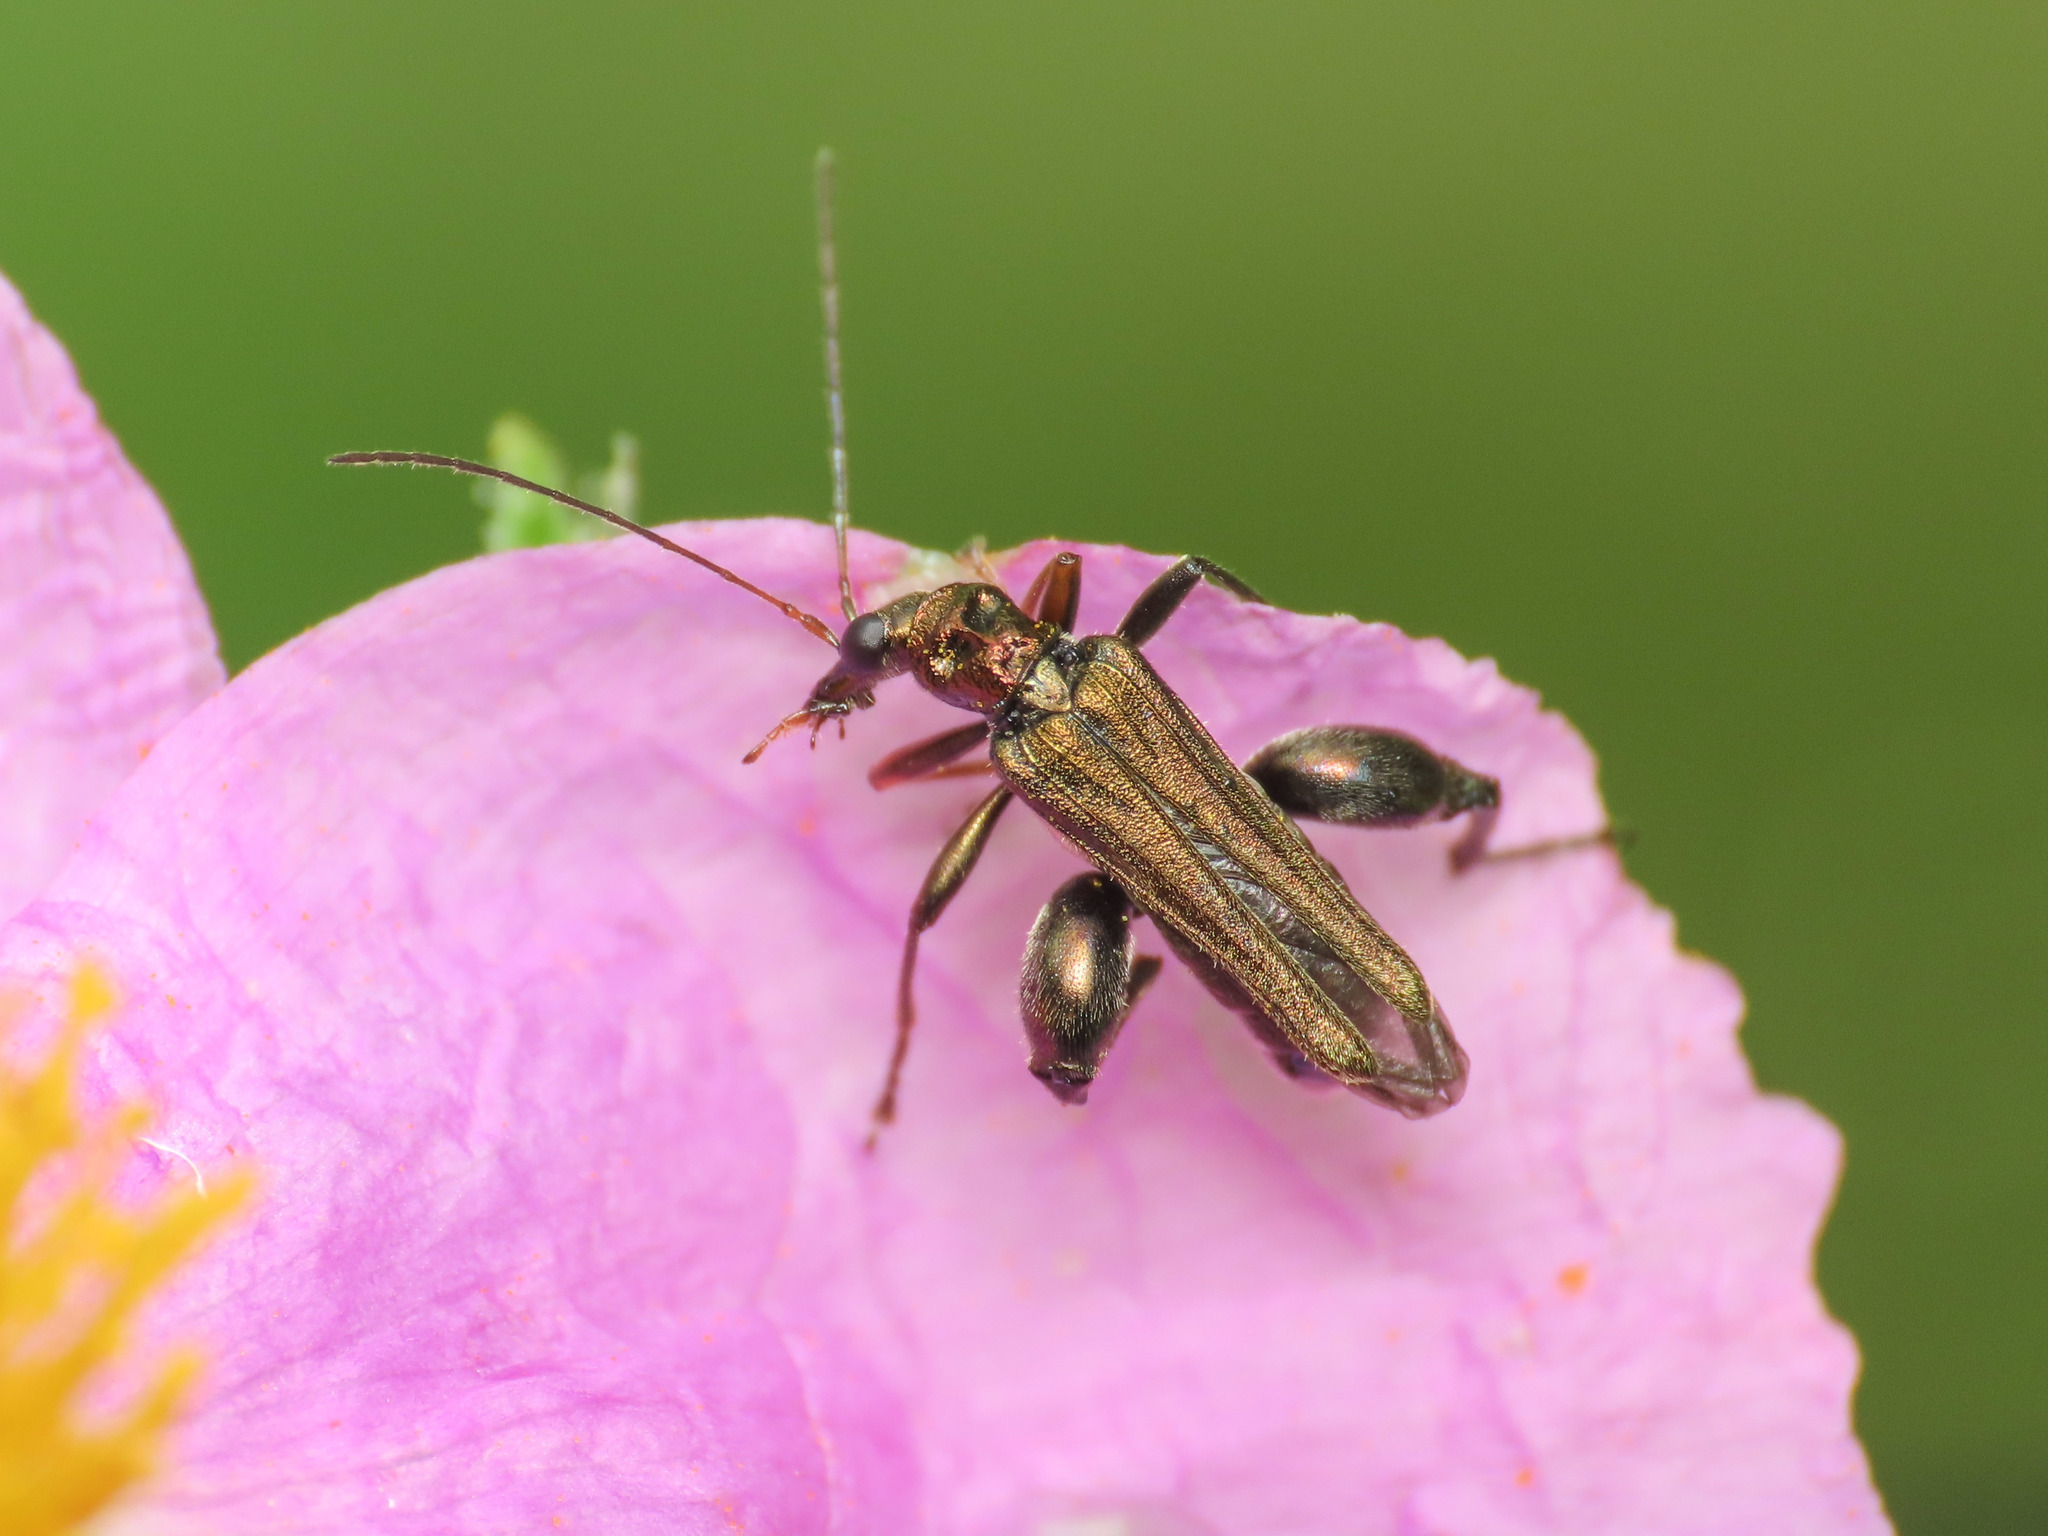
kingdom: Animalia
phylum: Arthropoda
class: Insecta
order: Coleoptera
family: Oedemeridae
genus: Oedemera
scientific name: Oedemera flavipes
